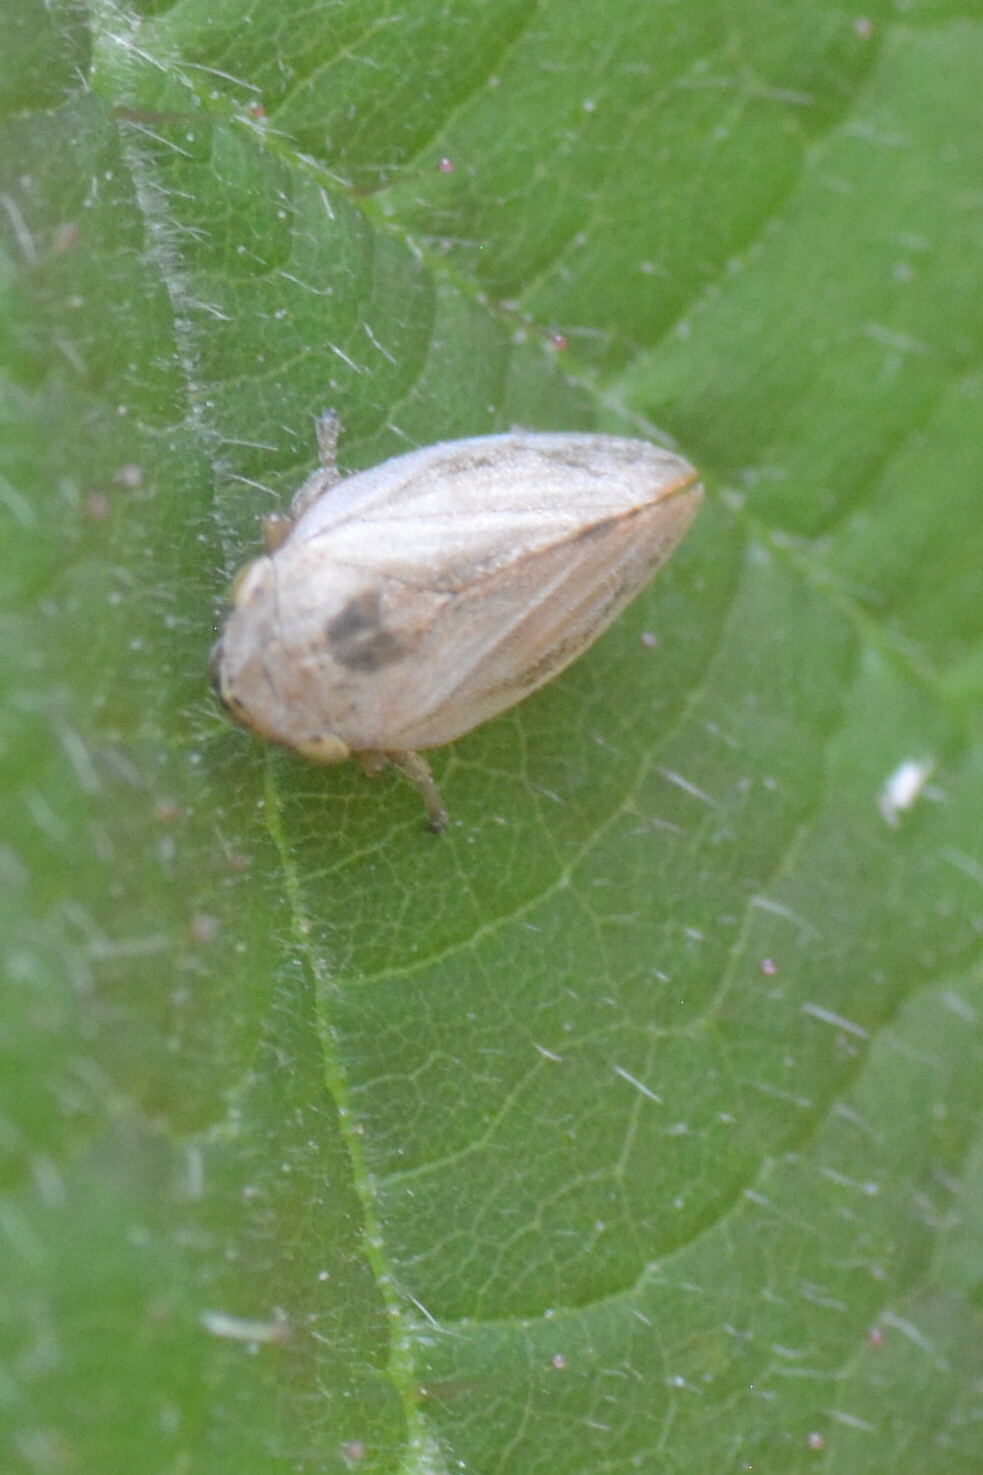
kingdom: Animalia
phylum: Arthropoda
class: Insecta
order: Hemiptera
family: Aphrophoridae
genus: Philaenus
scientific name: Philaenus spumarius
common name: Meadow spittlebug
